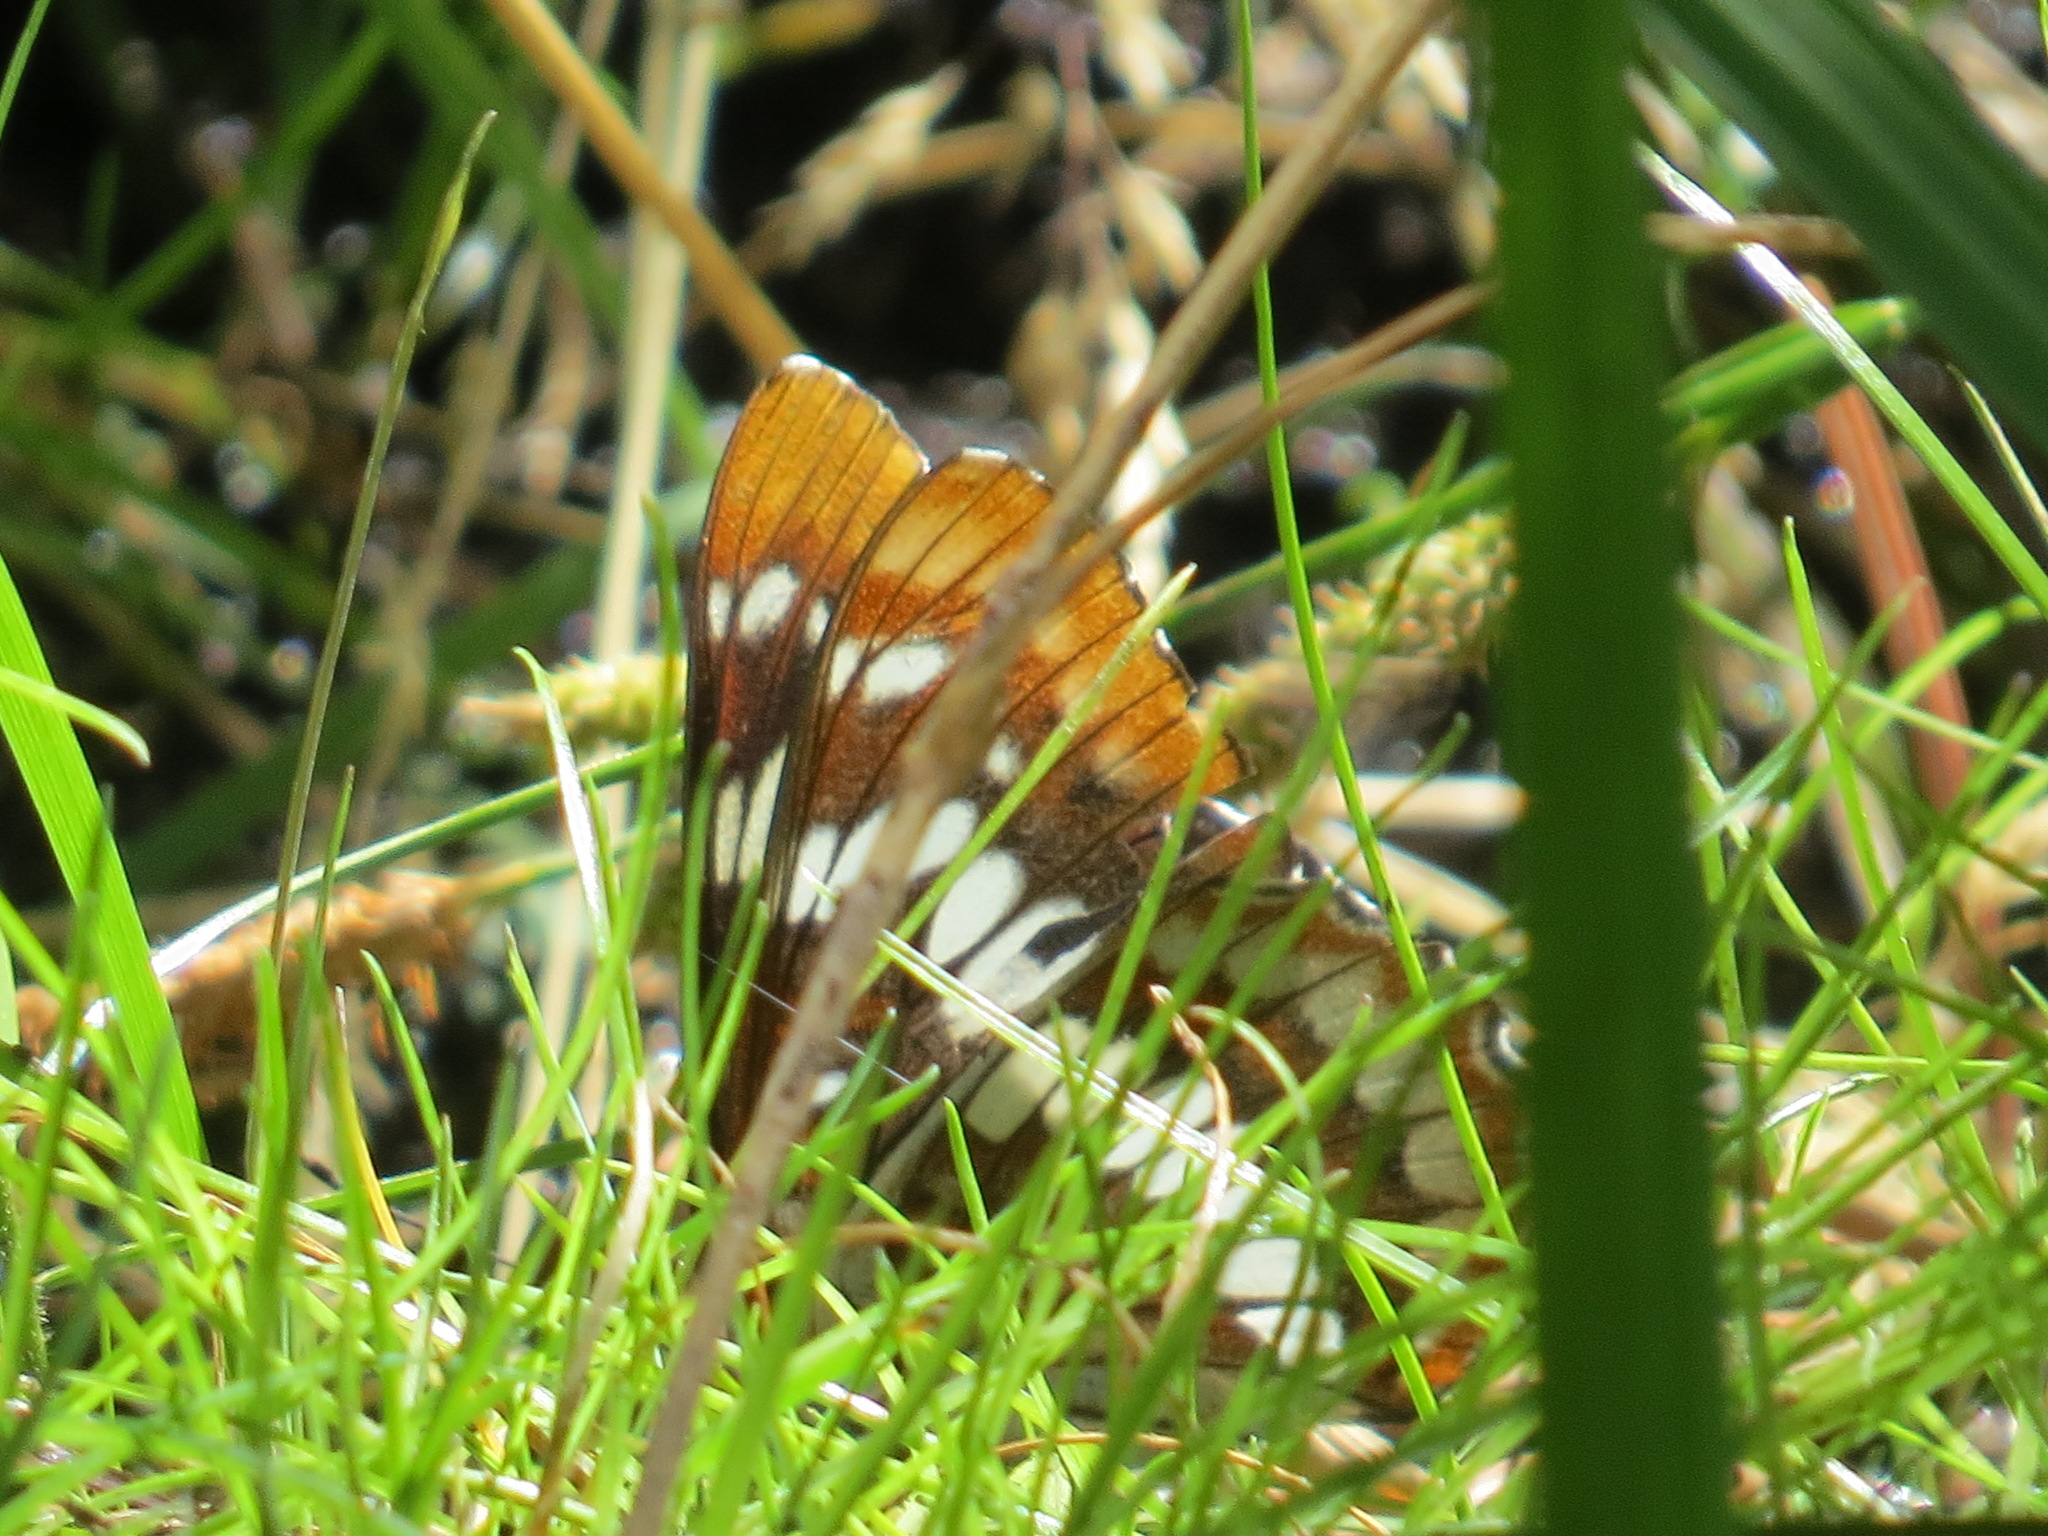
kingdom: Animalia
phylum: Arthropoda
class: Insecta
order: Lepidoptera
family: Nymphalidae
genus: Limenitis
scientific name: Limenitis lorquini
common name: Lorquin's admiral
